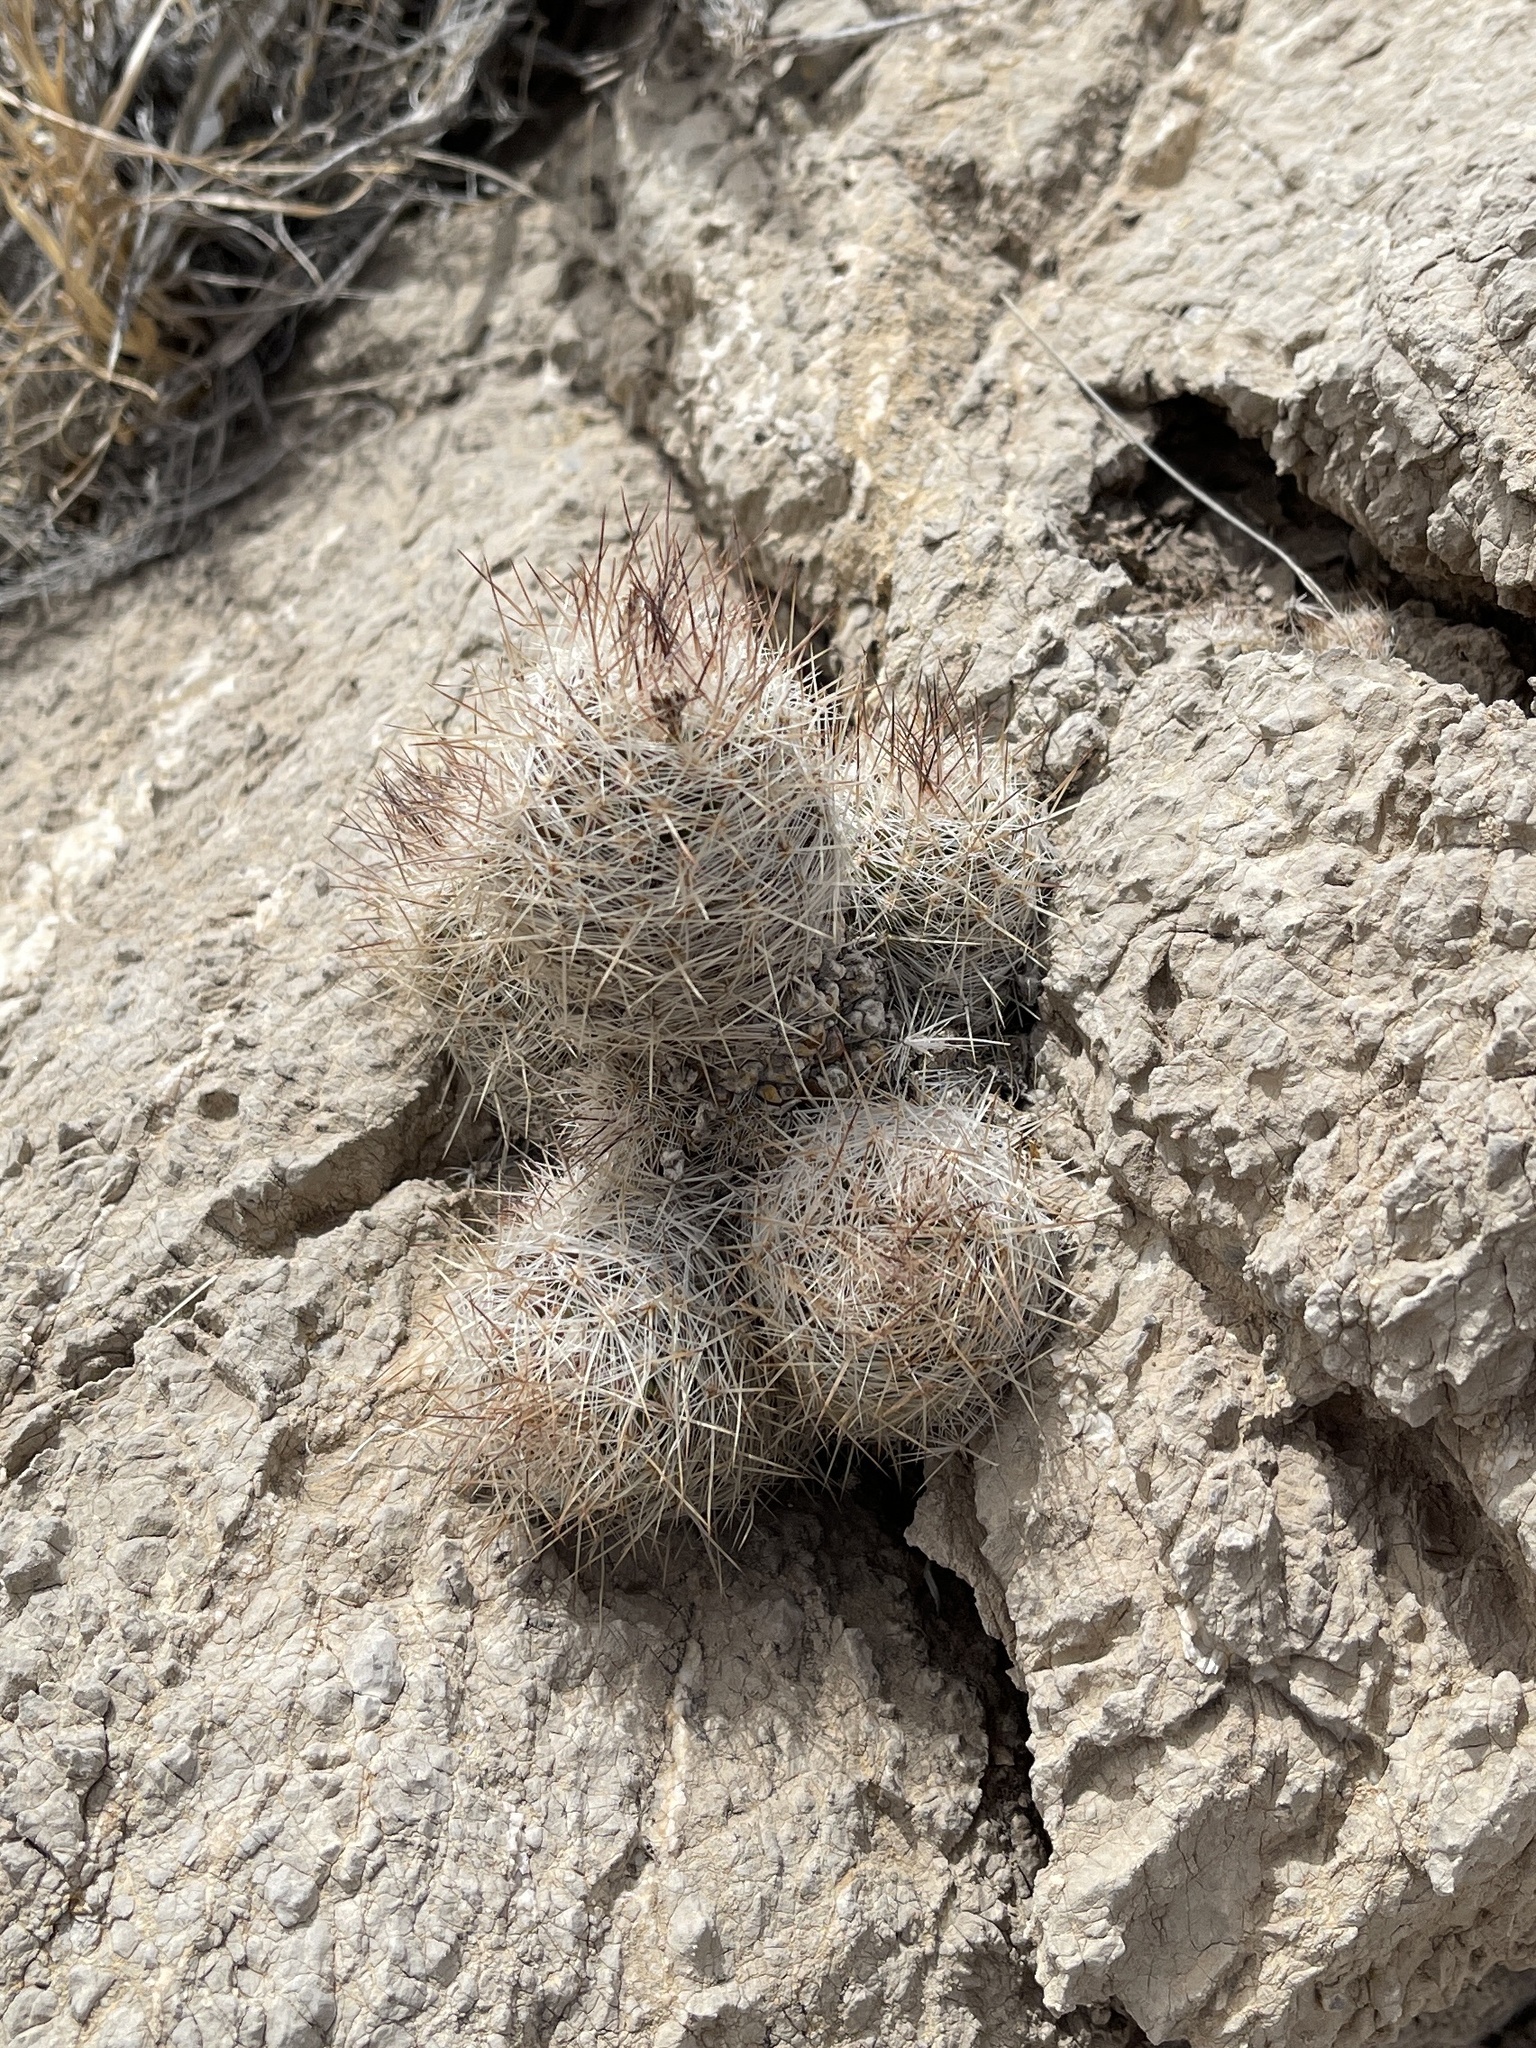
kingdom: Plantae
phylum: Tracheophyta
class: Magnoliopsida
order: Caryophyllales
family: Cactaceae
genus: Pelecyphora
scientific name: Pelecyphora tuberculosa
